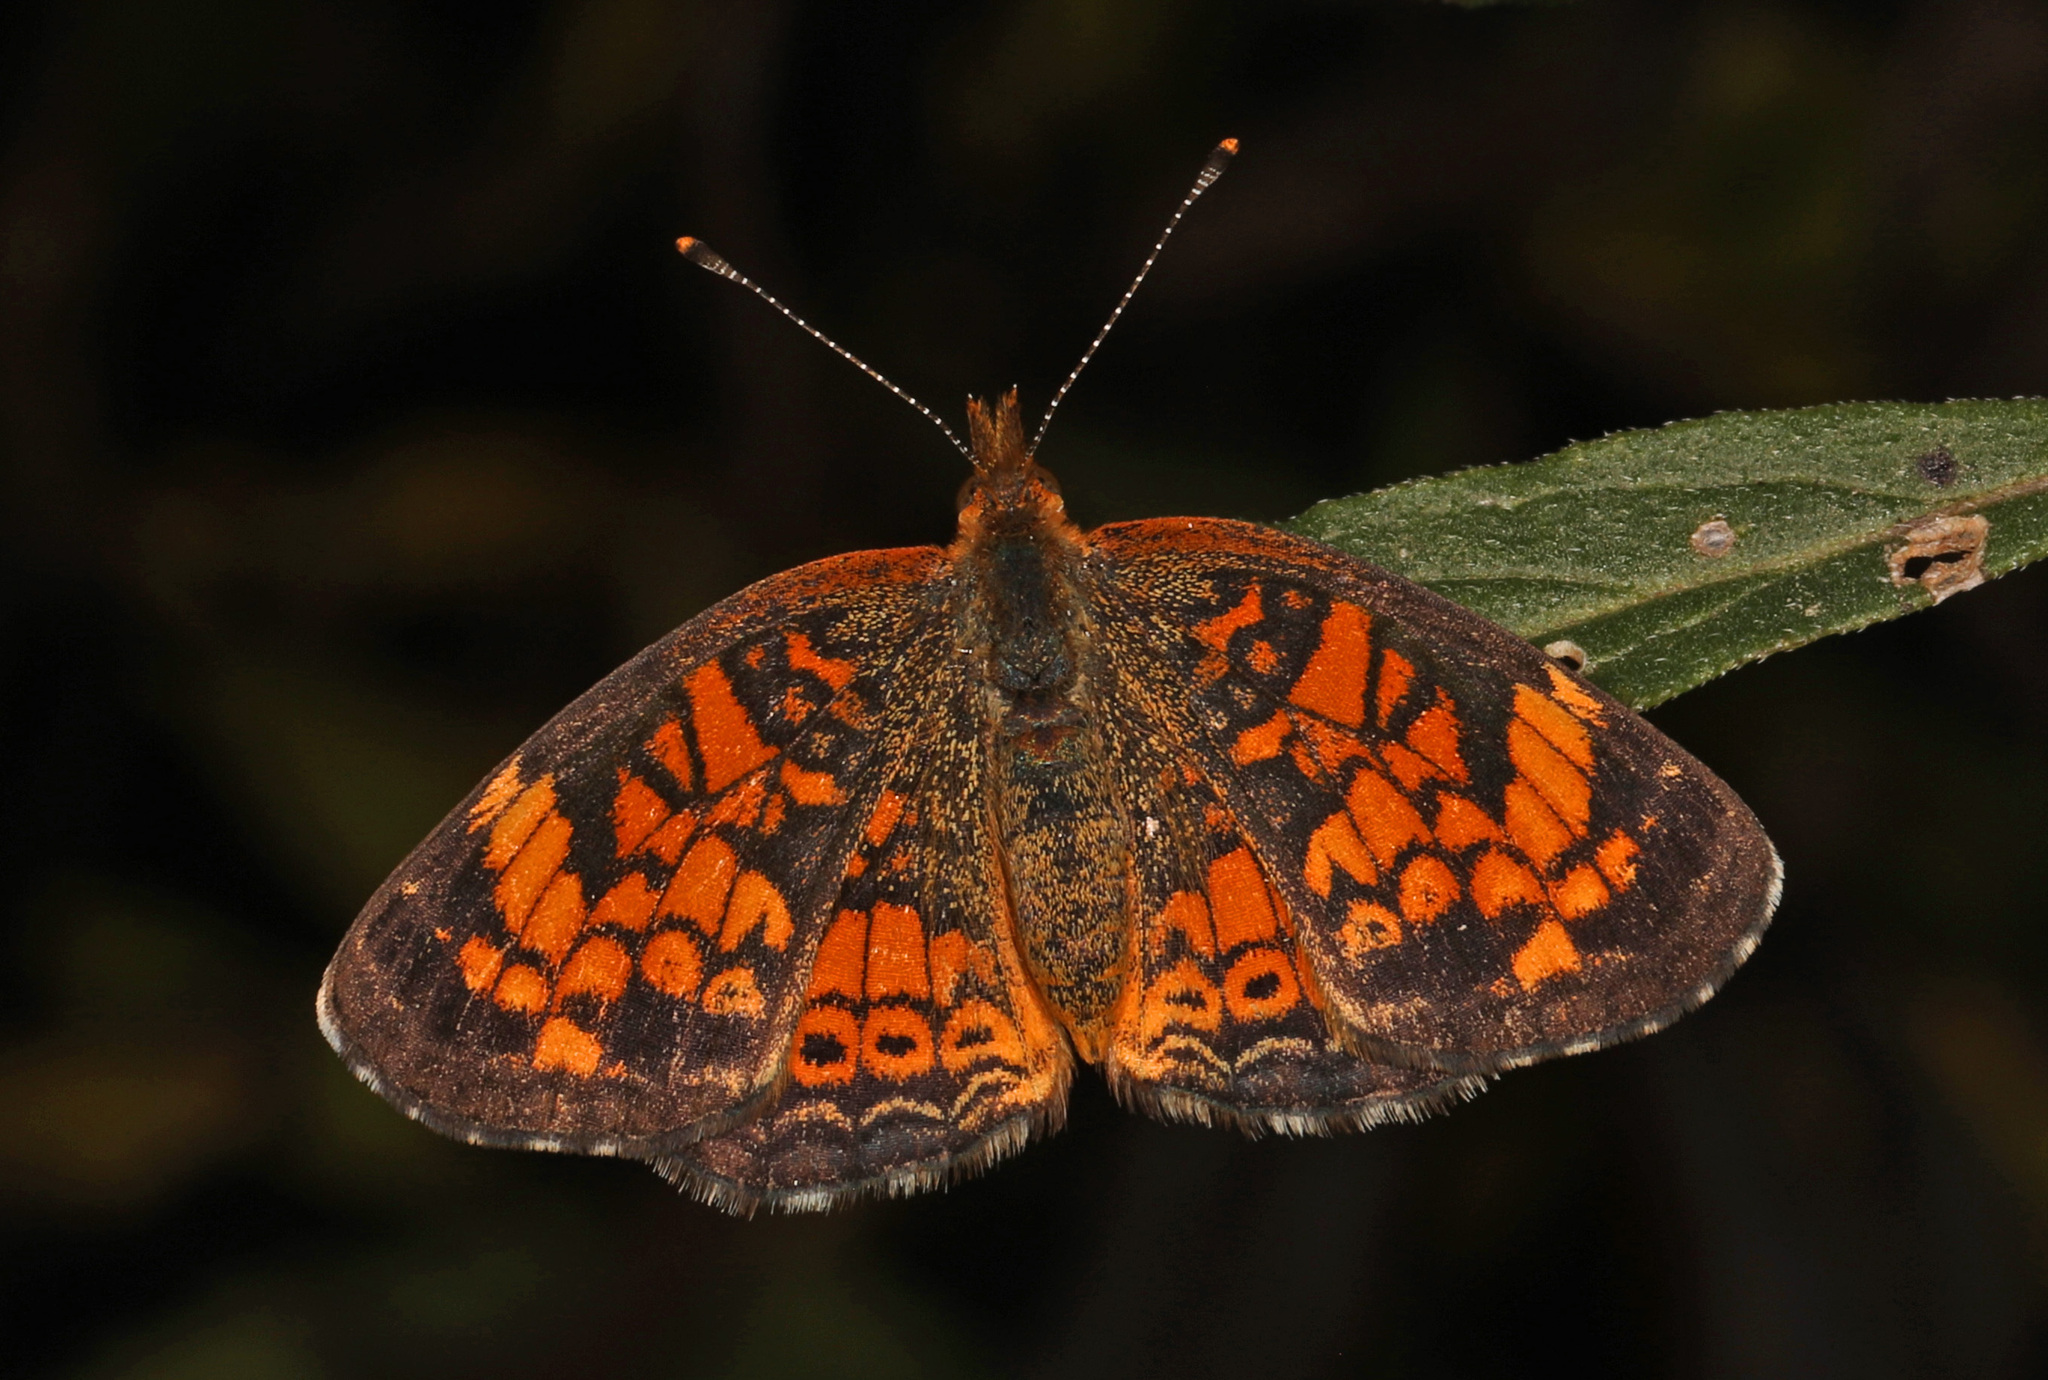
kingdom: Animalia
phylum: Arthropoda
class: Insecta
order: Lepidoptera
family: Nymphalidae
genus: Phyciodes
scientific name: Phyciodes tharos
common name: Pearl crescent
